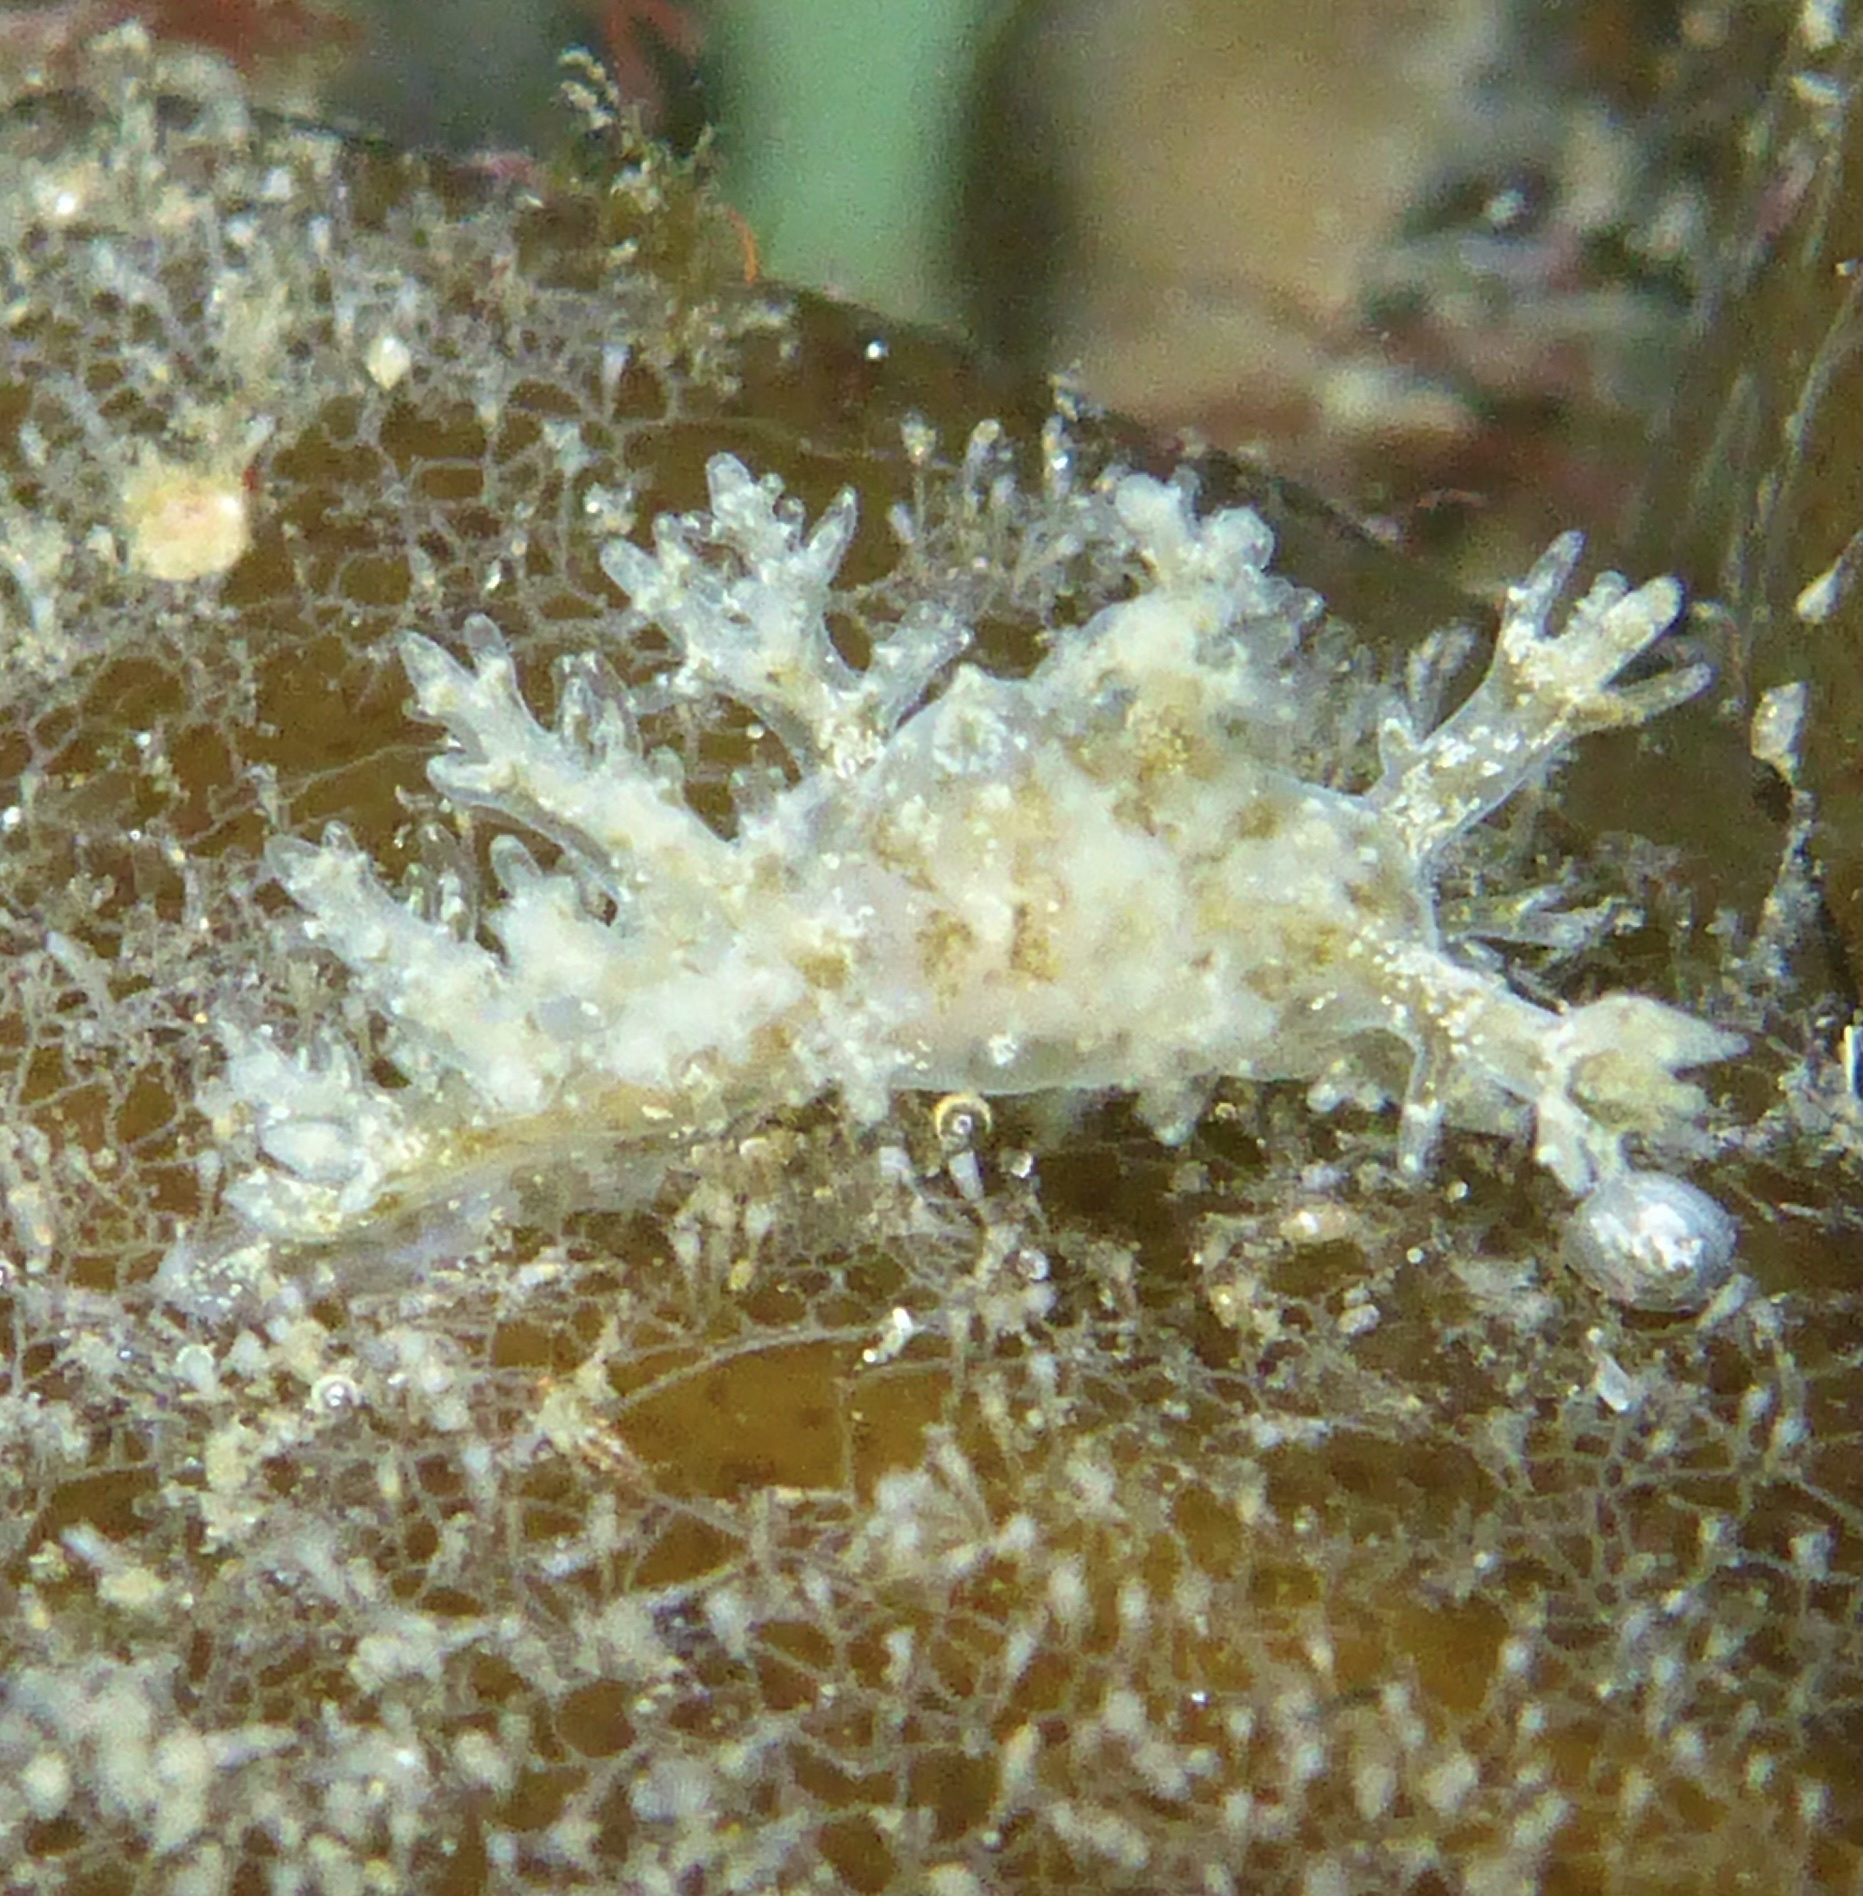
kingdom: Animalia
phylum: Mollusca
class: Gastropoda
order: Nudibranchia
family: Dendronotidae
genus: Dendronotus
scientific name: Dendronotus venustus
